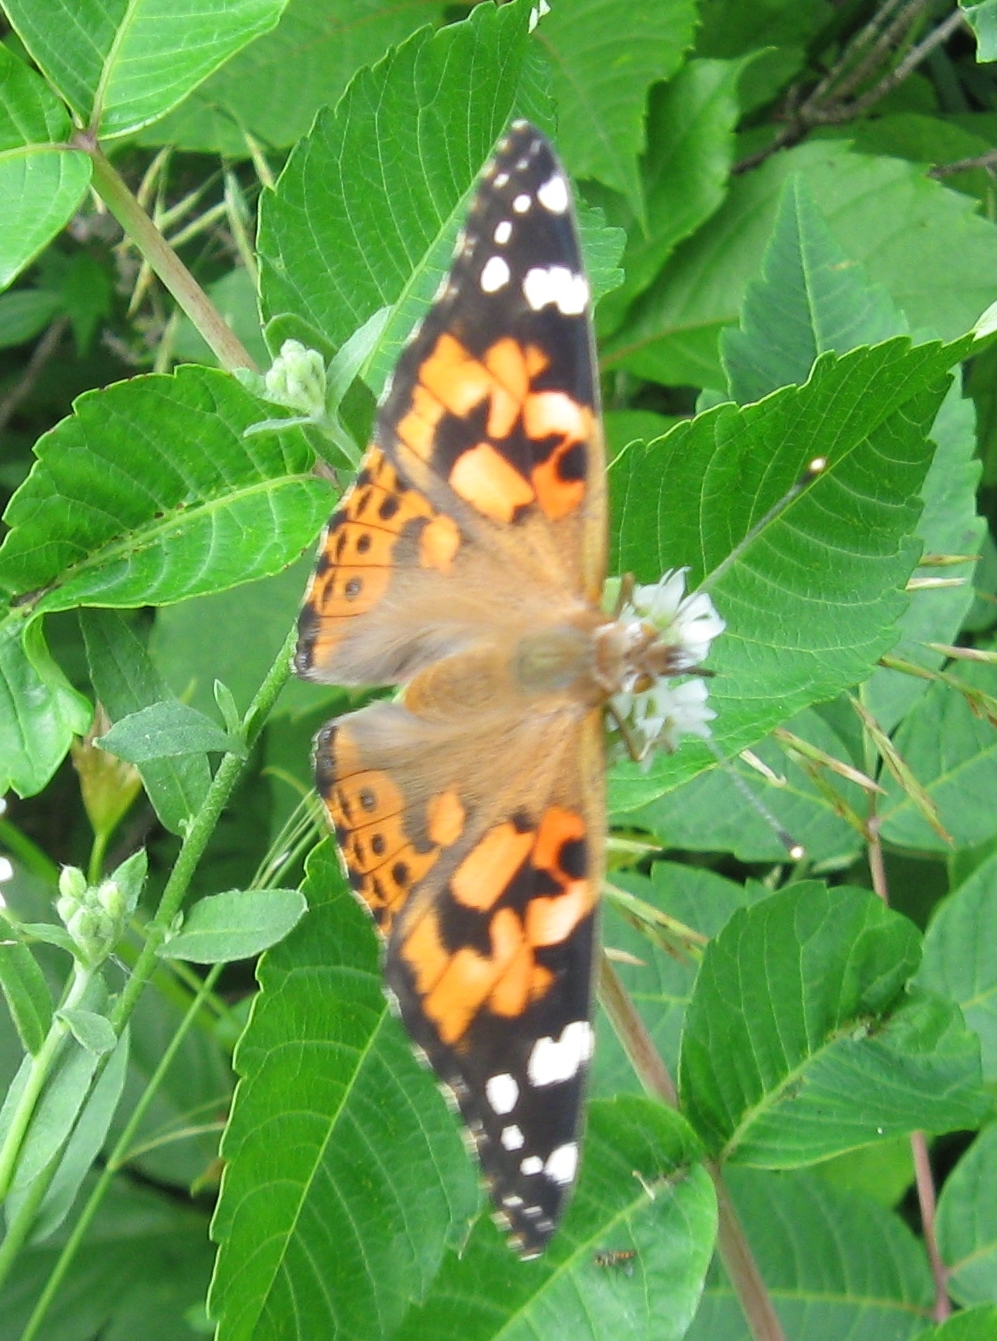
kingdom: Animalia
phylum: Arthropoda
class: Insecta
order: Lepidoptera
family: Nymphalidae
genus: Vanessa
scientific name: Vanessa cardui
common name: Painted lady
